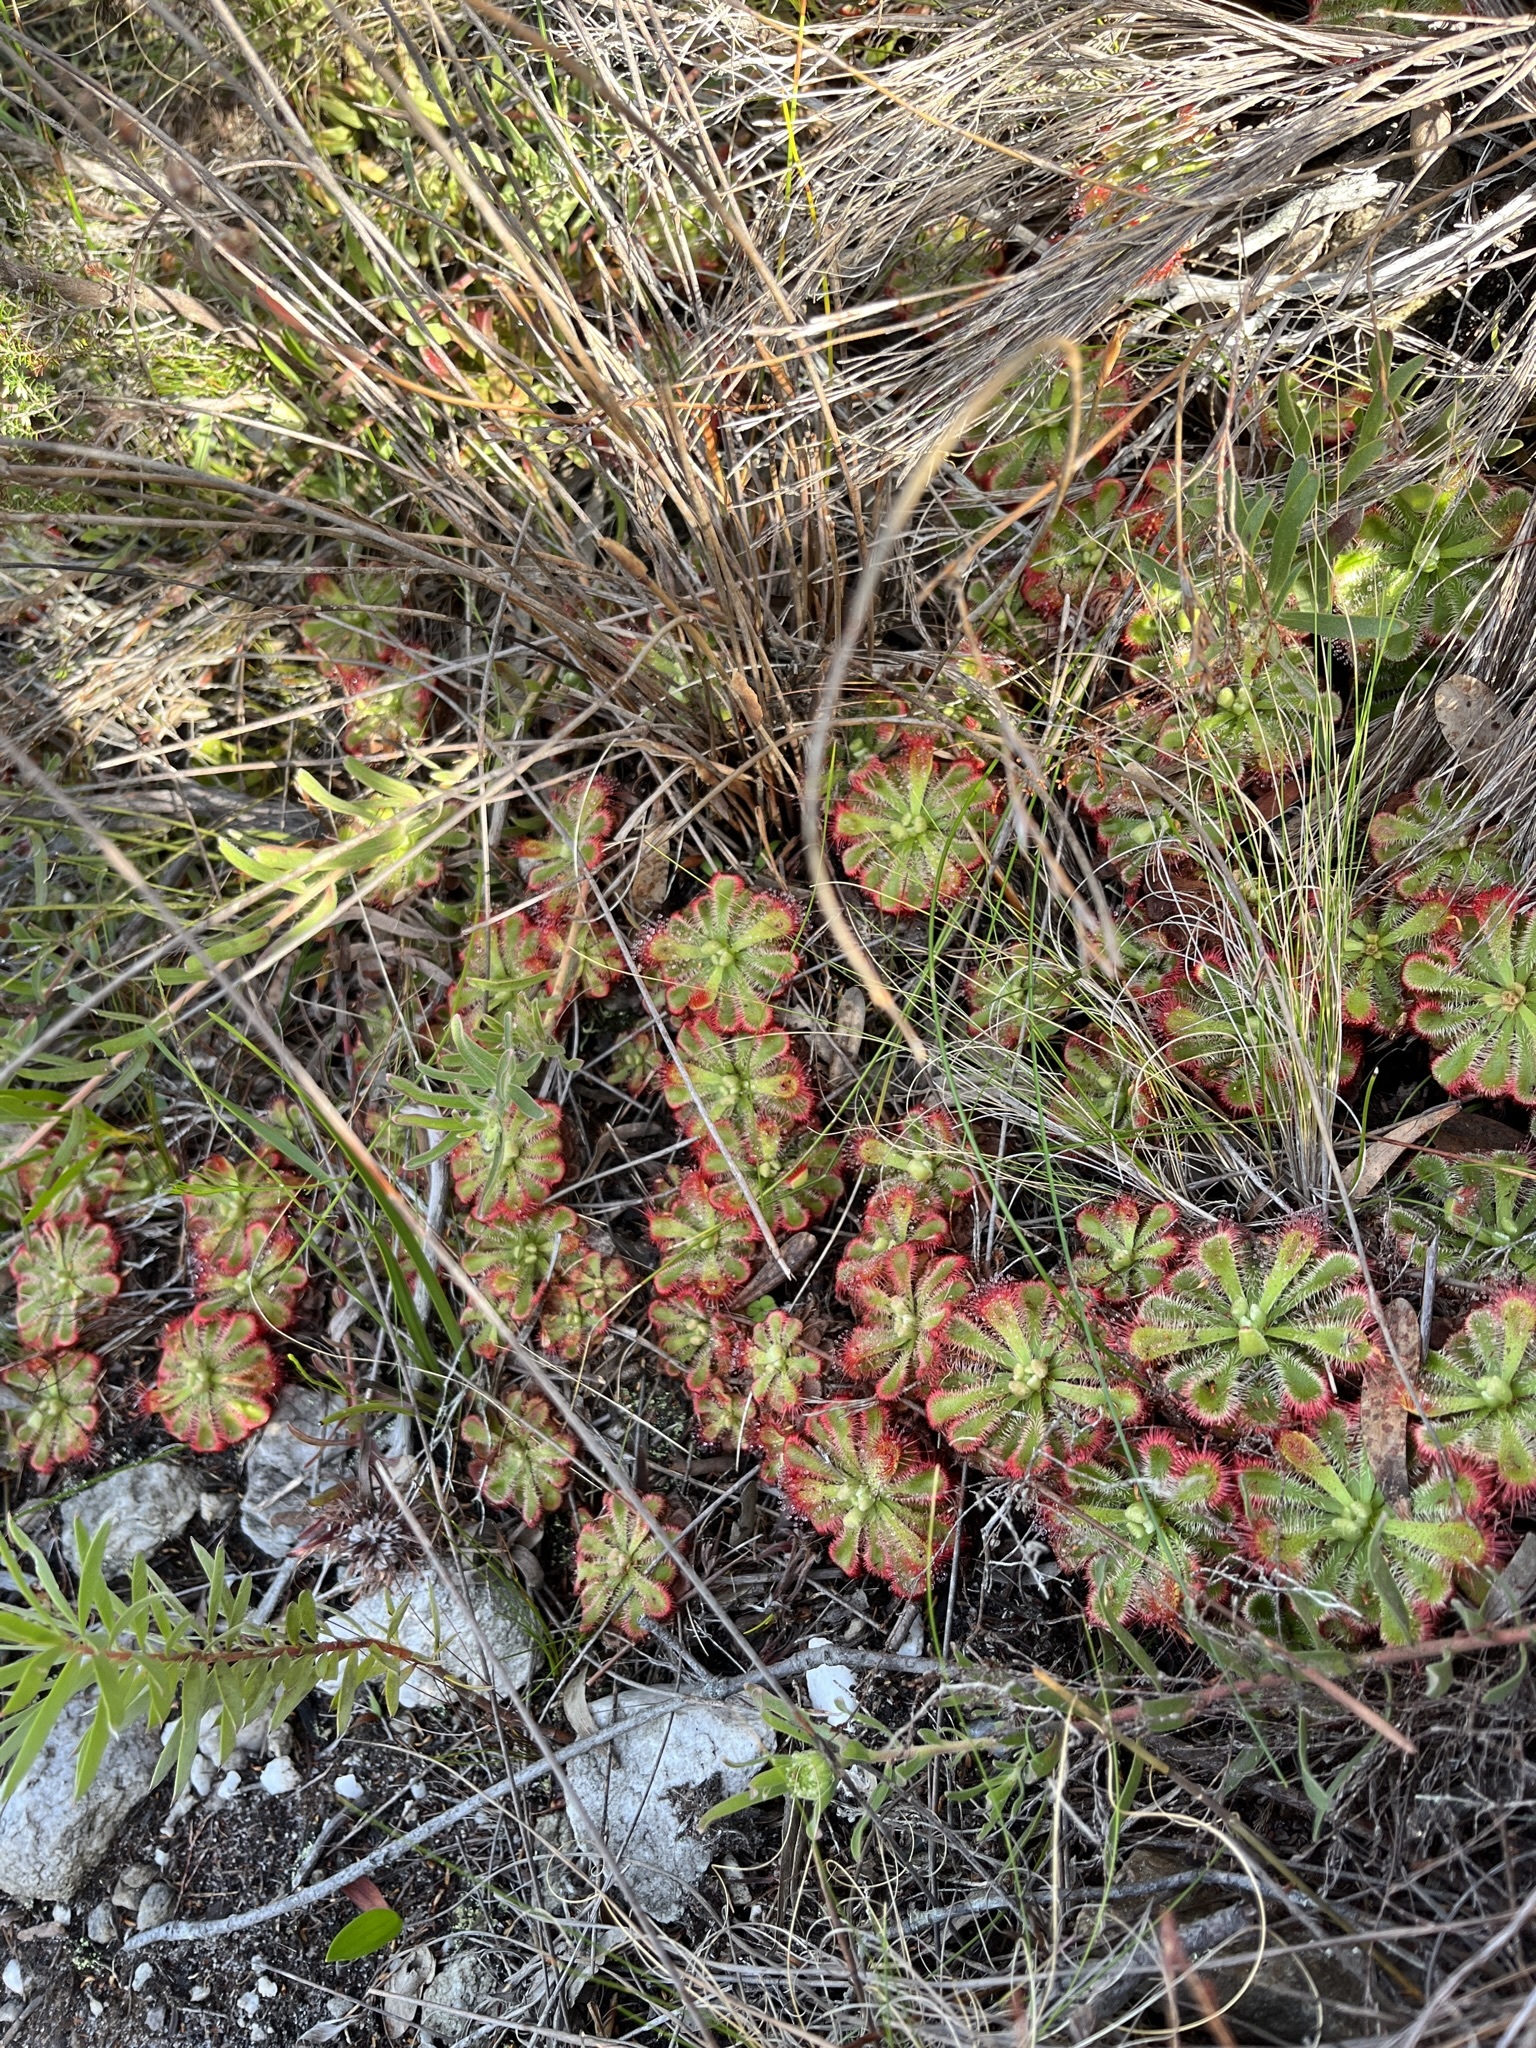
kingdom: Plantae
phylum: Tracheophyta
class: Magnoliopsida
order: Caryophyllales
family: Droseraceae
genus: Drosera
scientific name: Drosera xerophila
